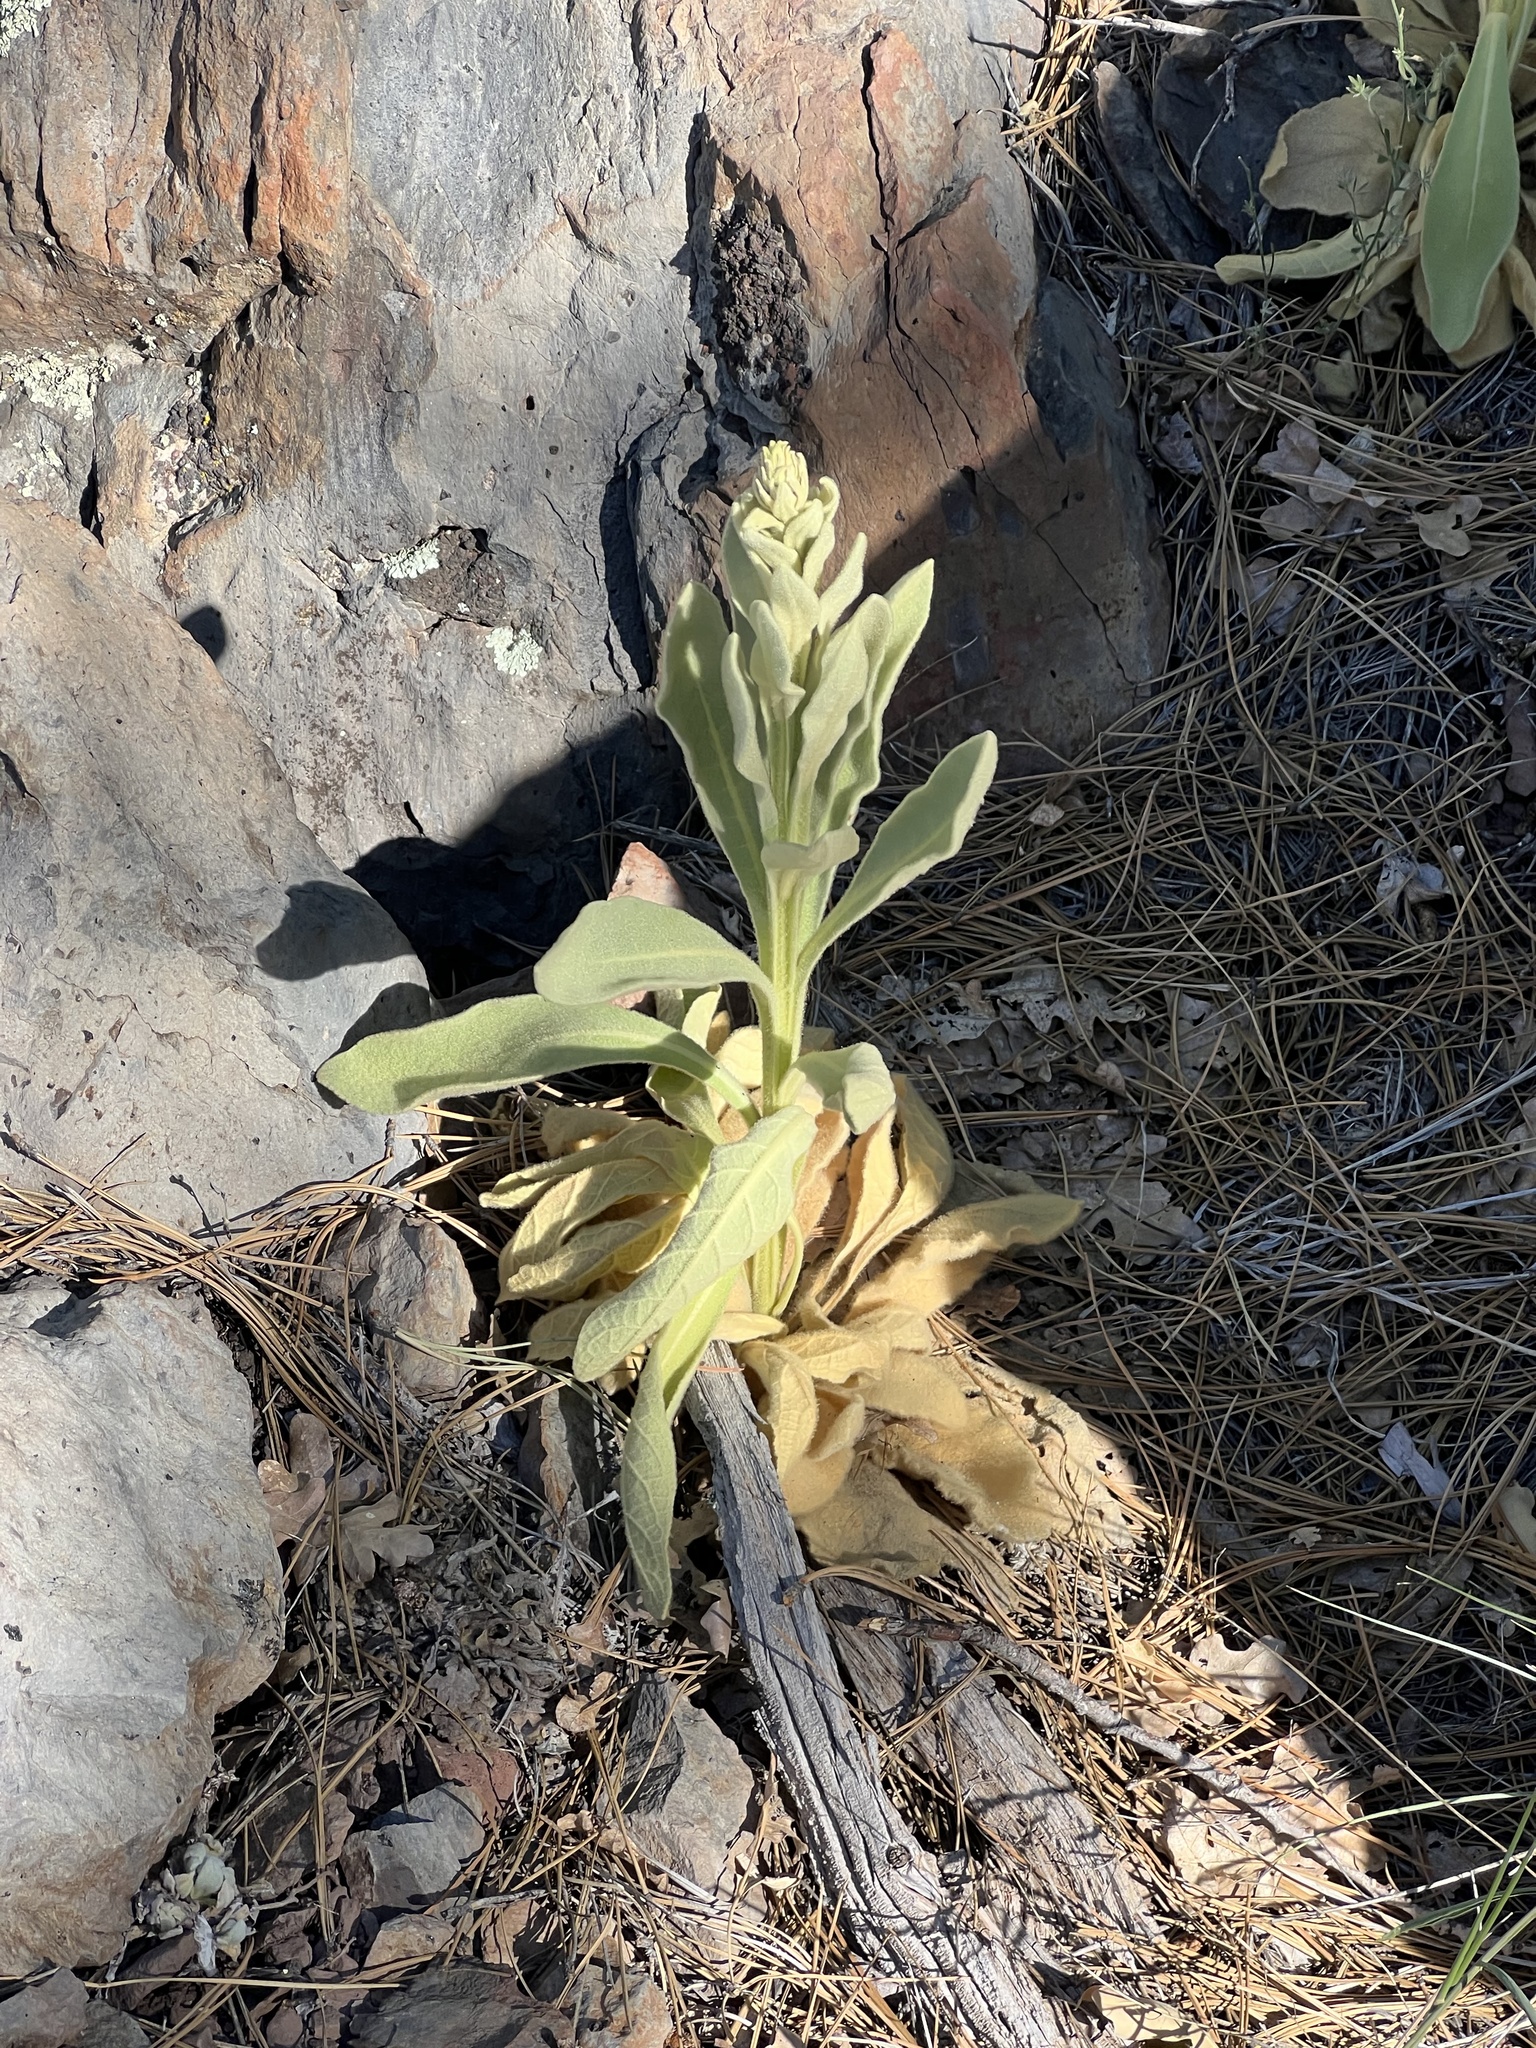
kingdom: Plantae
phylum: Tracheophyta
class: Magnoliopsida
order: Lamiales
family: Scrophulariaceae
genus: Verbascum
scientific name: Verbascum thapsus
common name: Common mullein
